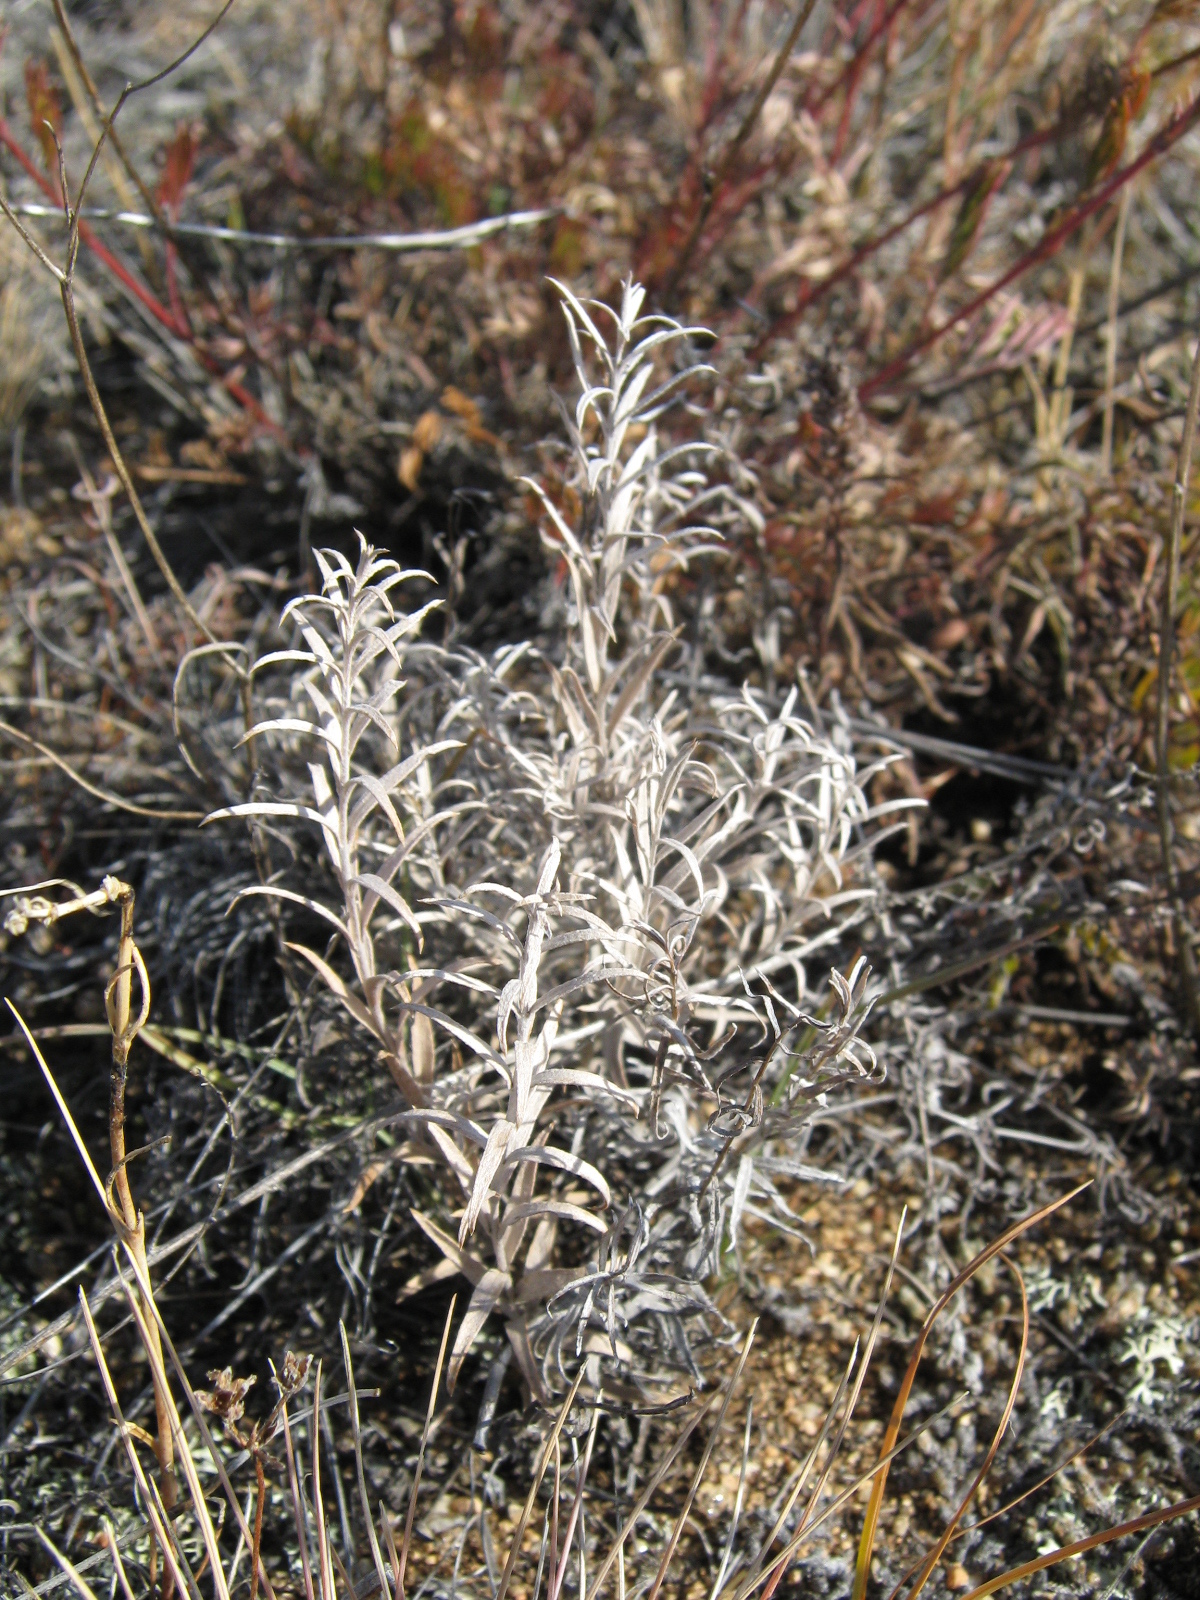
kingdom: Plantae
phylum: Tracheophyta
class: Magnoliopsida
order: Lamiales
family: Orobanchaceae
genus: Cymbaria
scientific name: Cymbaria daurica
